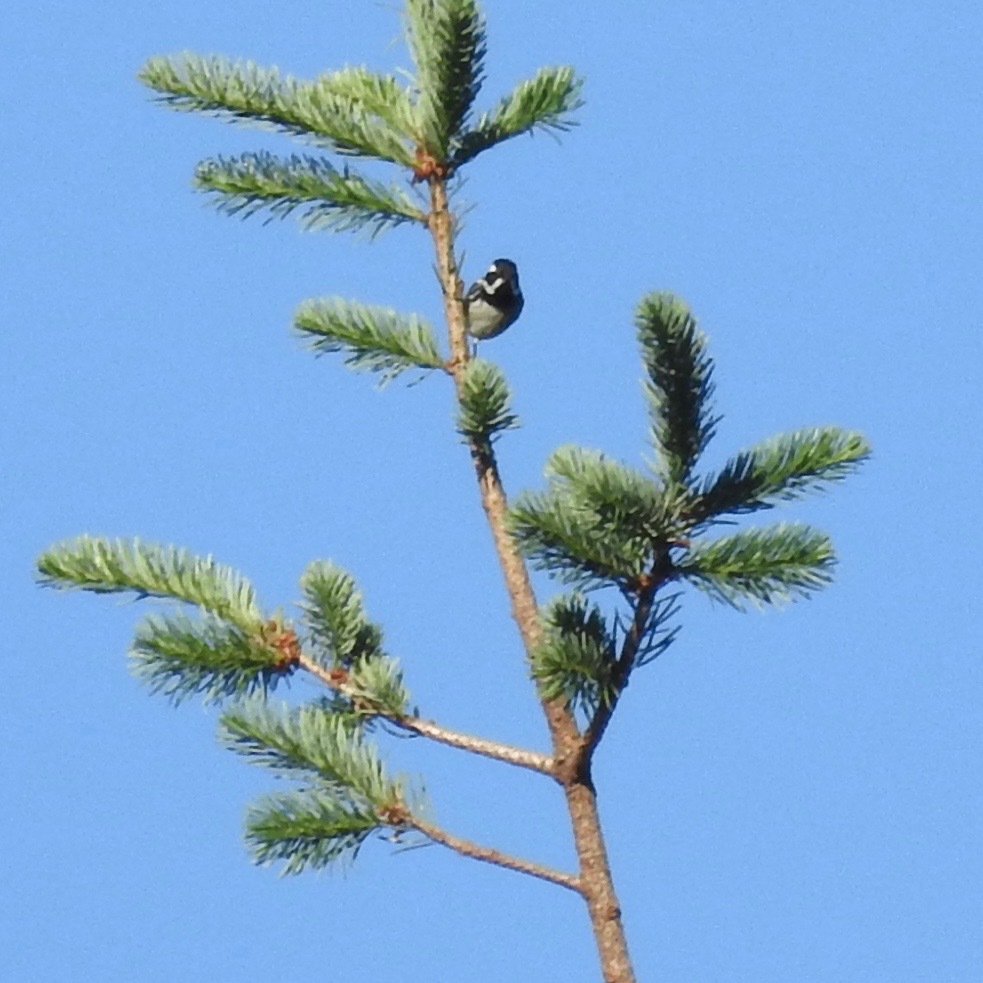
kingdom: Animalia
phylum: Chordata
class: Aves
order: Passeriformes
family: Parulidae
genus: Setophaga
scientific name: Setophaga nigrescens
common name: Black-throated gray warbler
